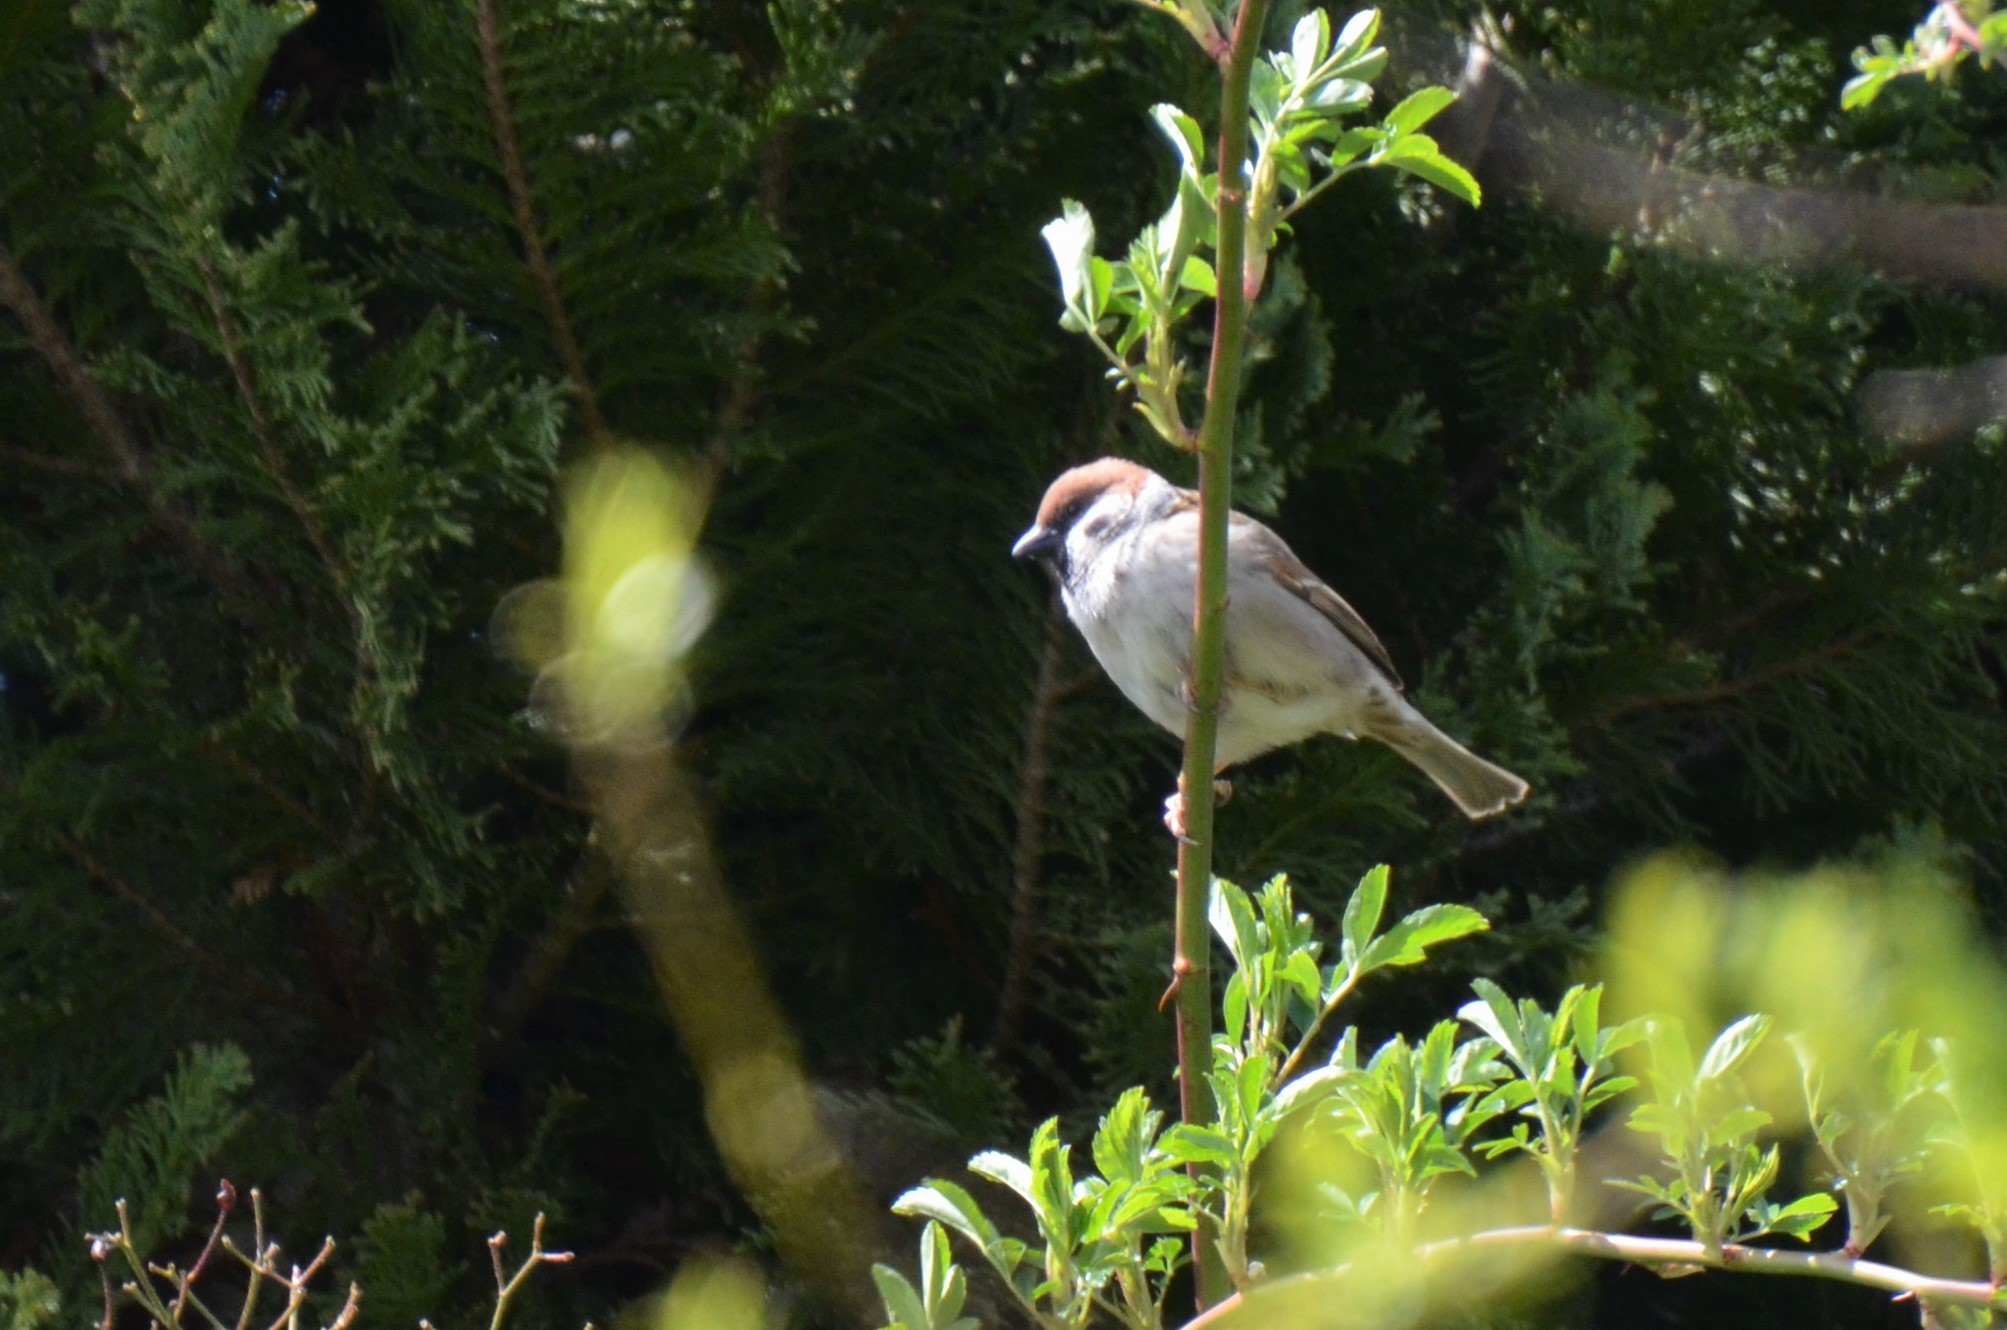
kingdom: Animalia
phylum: Chordata
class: Aves
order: Passeriformes
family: Passeridae
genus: Passer
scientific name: Passer montanus
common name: Eurasian tree sparrow
